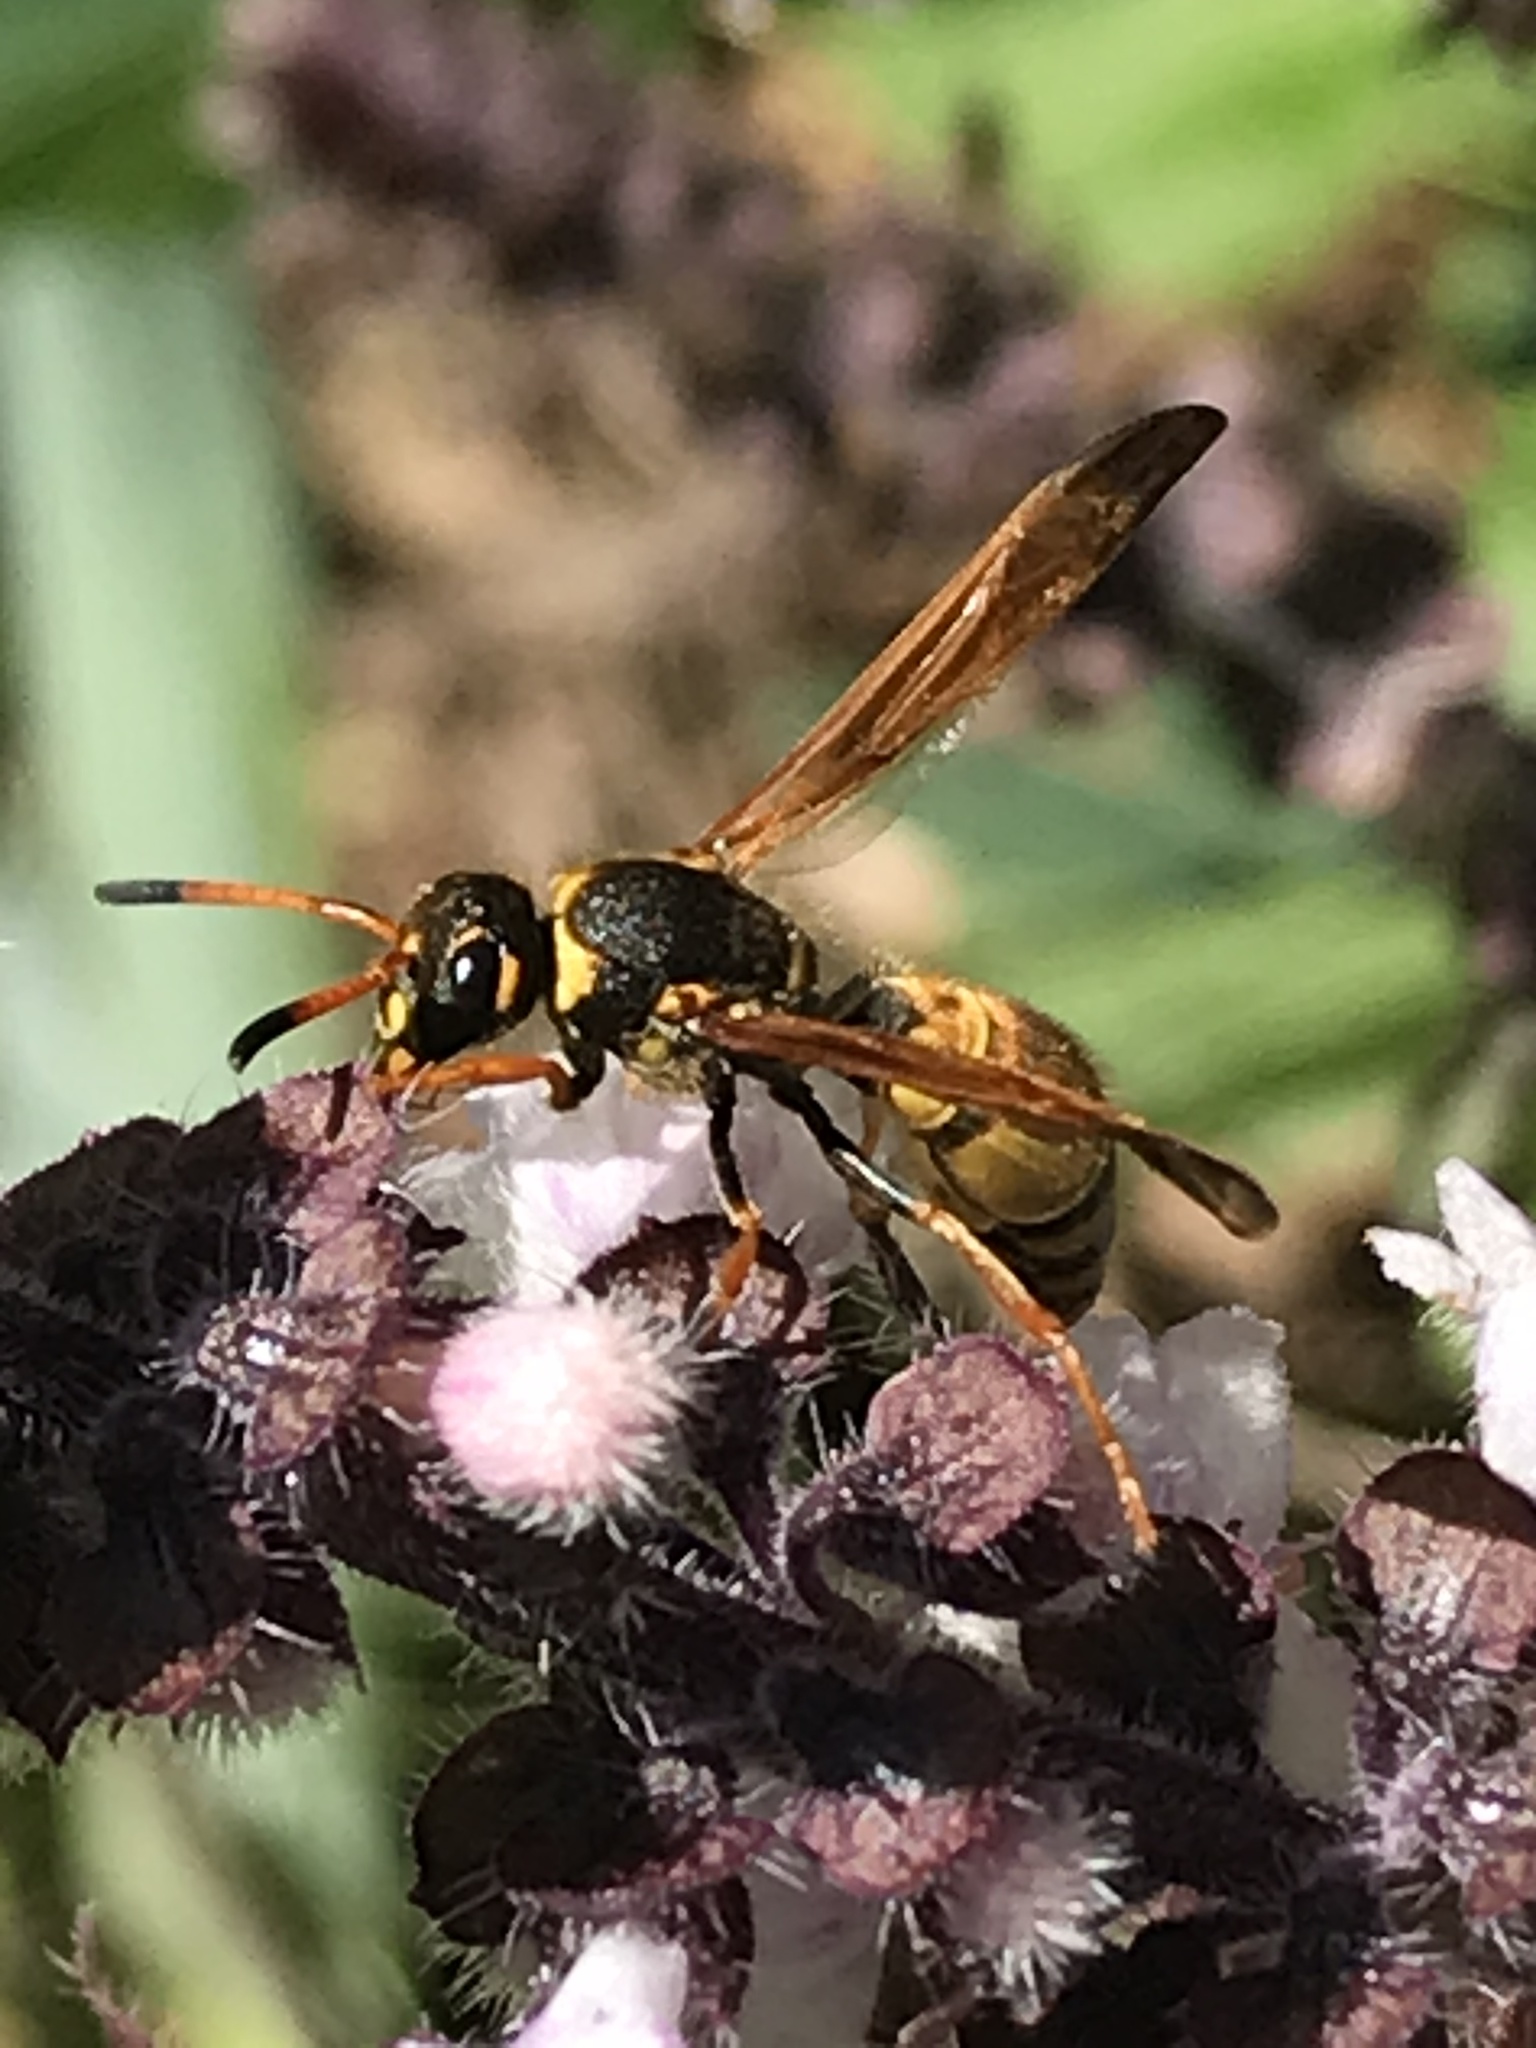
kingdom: Animalia
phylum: Arthropoda
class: Insecta
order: Hymenoptera
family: Vespidae
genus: Ancistrocerus
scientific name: Ancistrocerus
